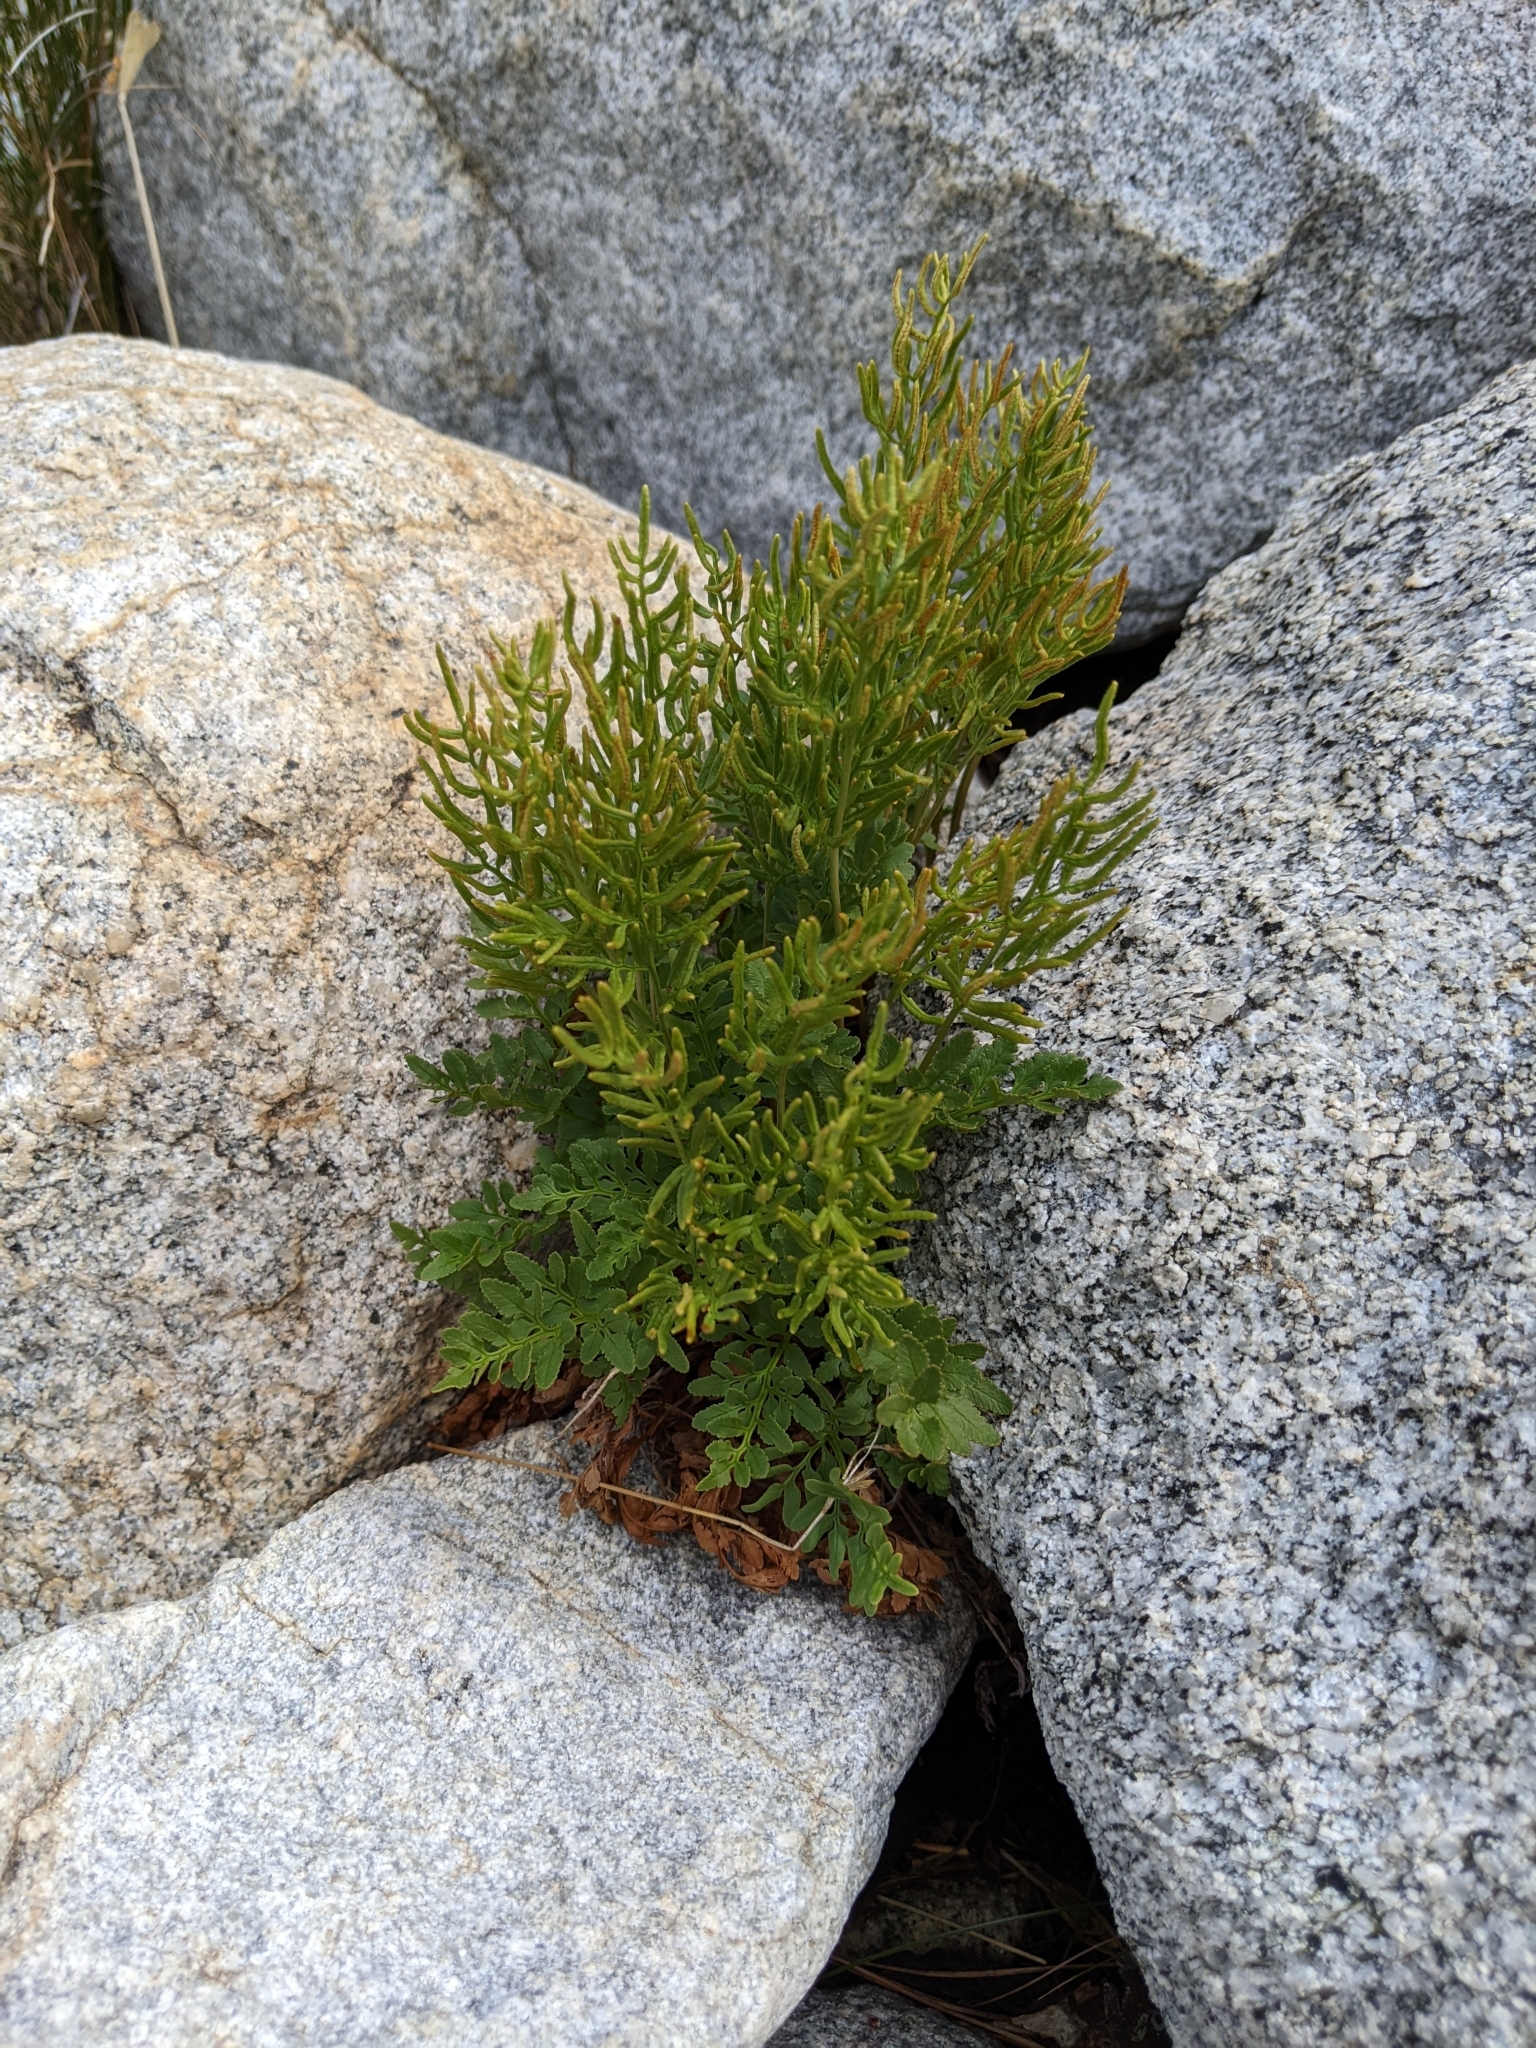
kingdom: Plantae
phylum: Tracheophyta
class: Polypodiopsida
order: Polypodiales
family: Pteridaceae
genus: Cryptogramma
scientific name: Cryptogramma acrostichoides
